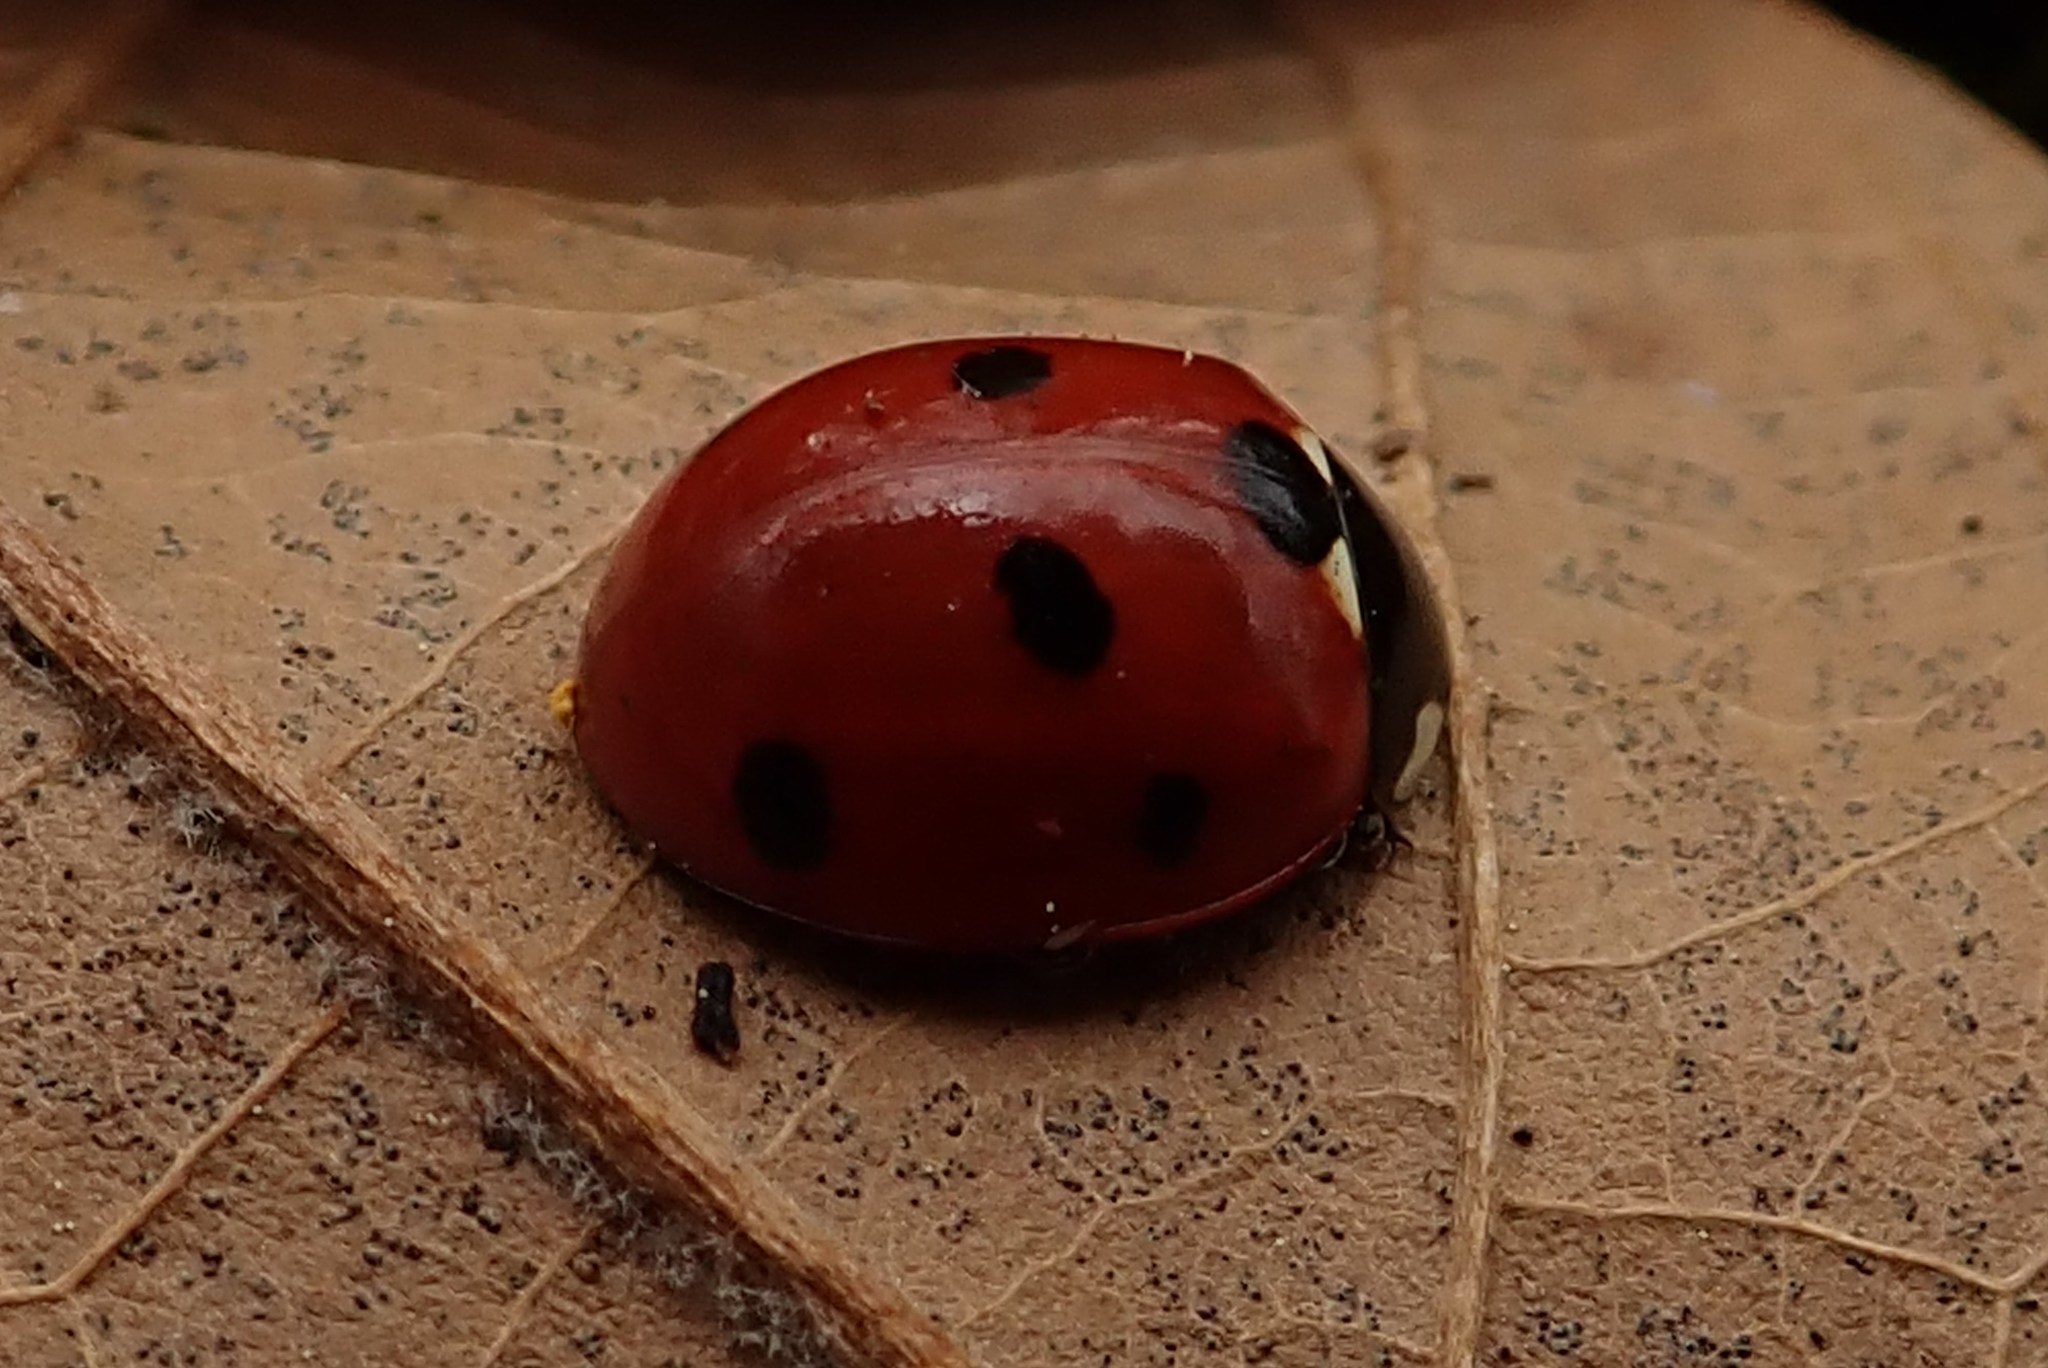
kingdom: Animalia
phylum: Arthropoda
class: Insecta
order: Coleoptera
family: Coccinellidae
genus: Coccinella
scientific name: Coccinella septempunctata
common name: Sevenspotted lady beetle
